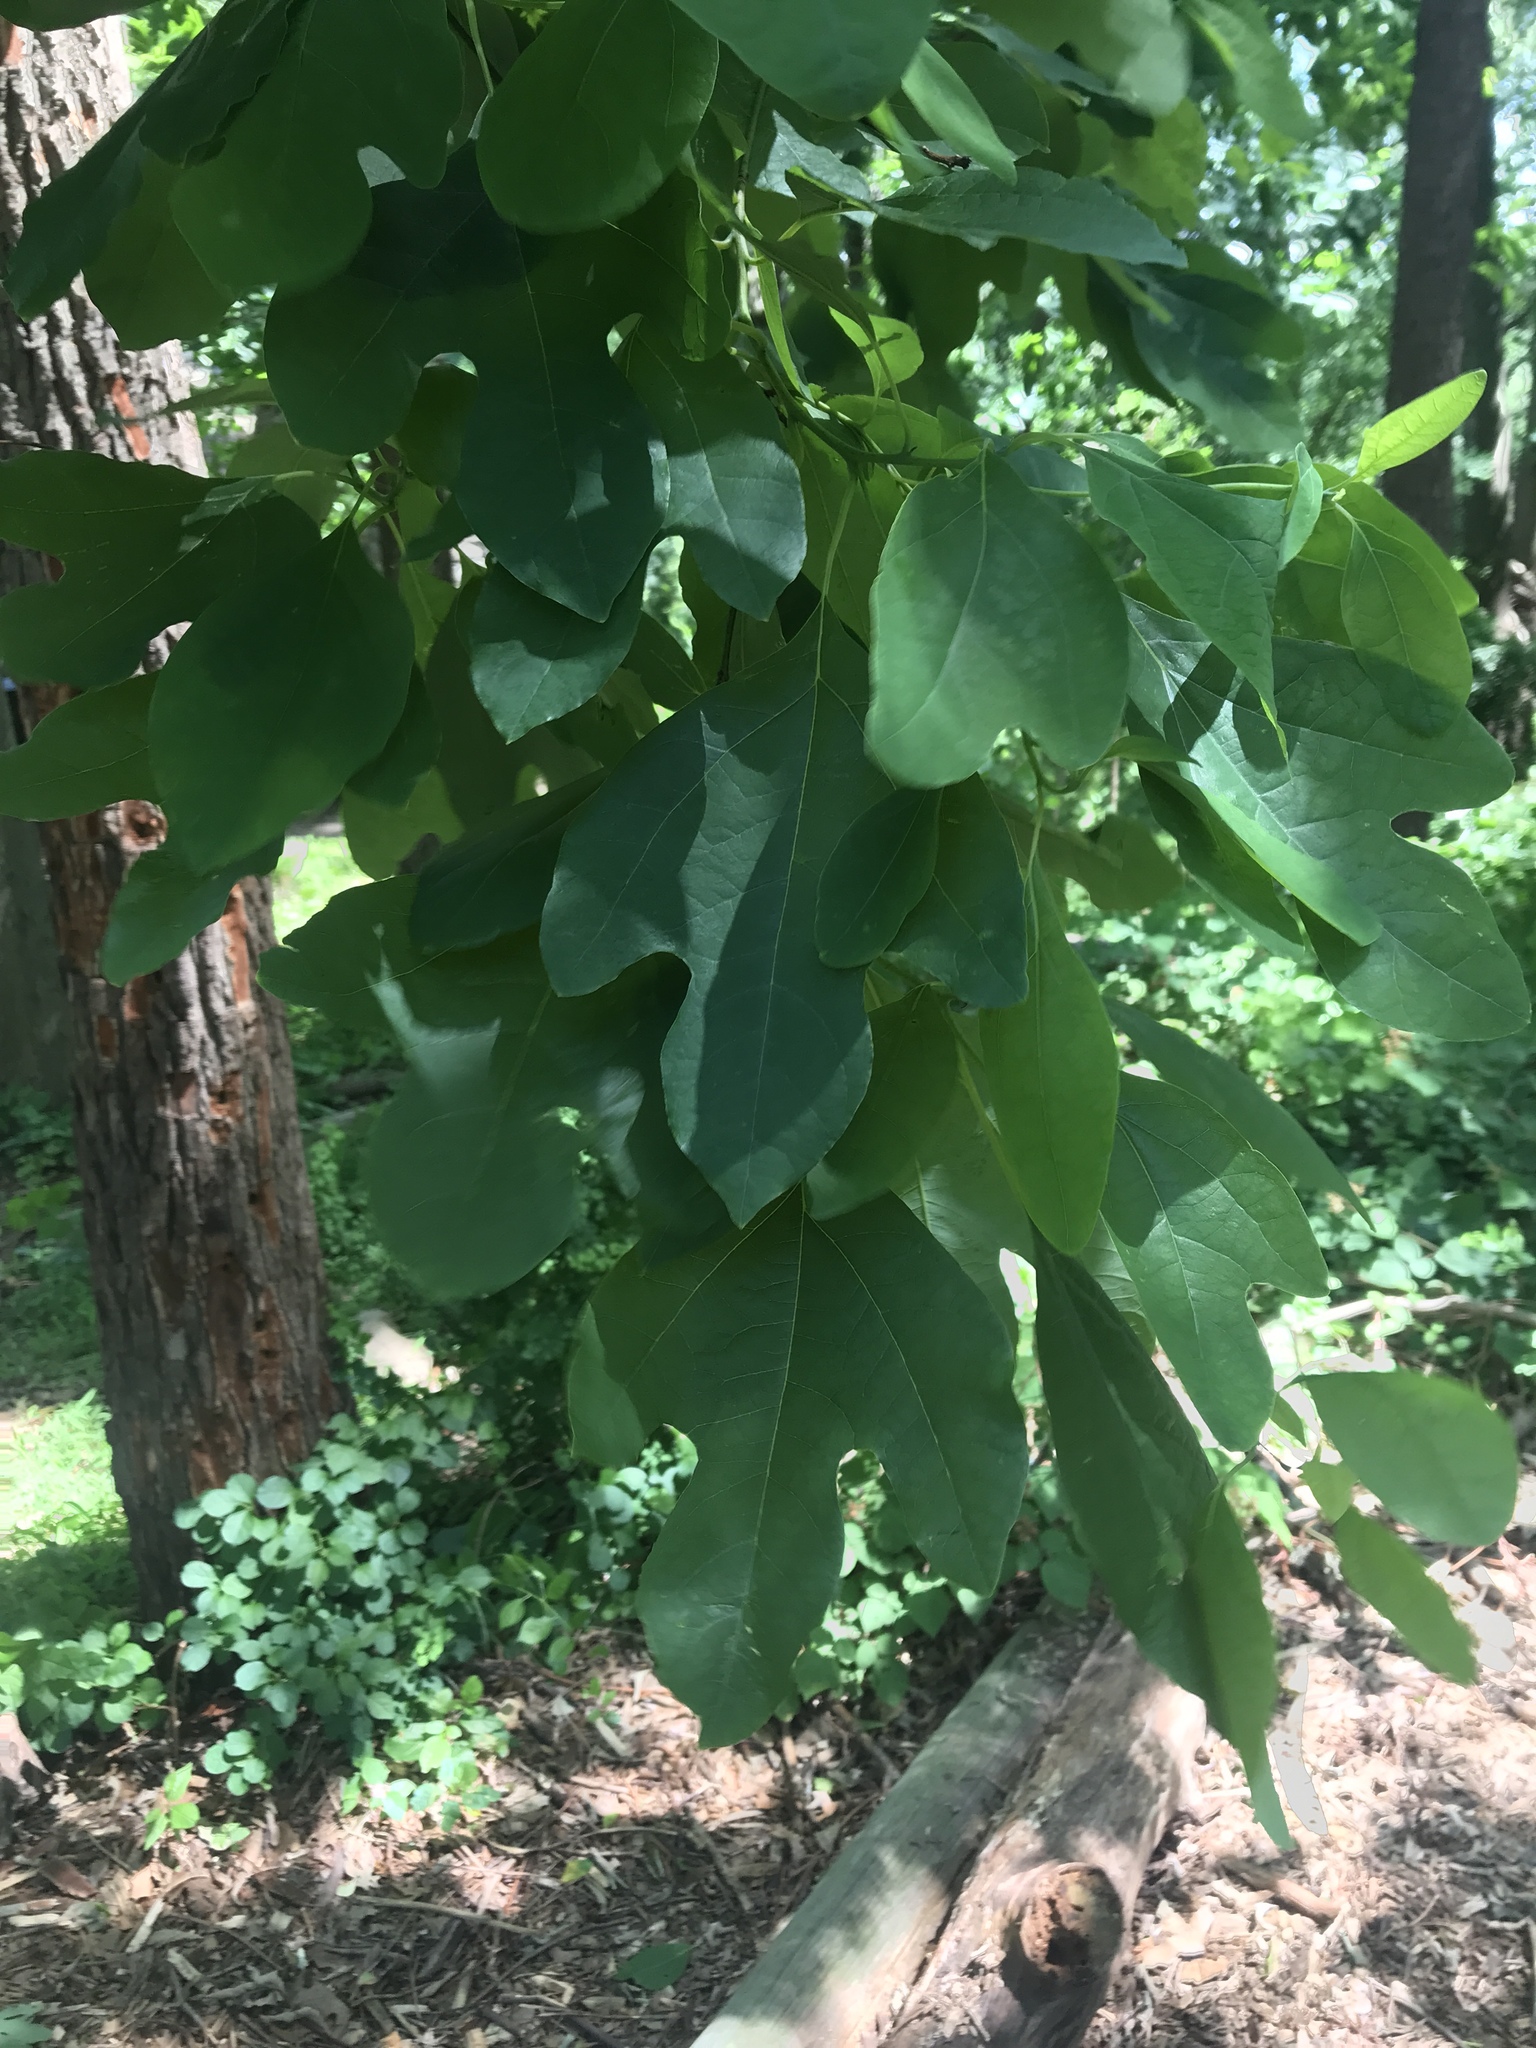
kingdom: Plantae
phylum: Tracheophyta
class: Magnoliopsida
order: Laurales
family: Lauraceae
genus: Sassafras
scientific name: Sassafras albidum
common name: Sassafras
